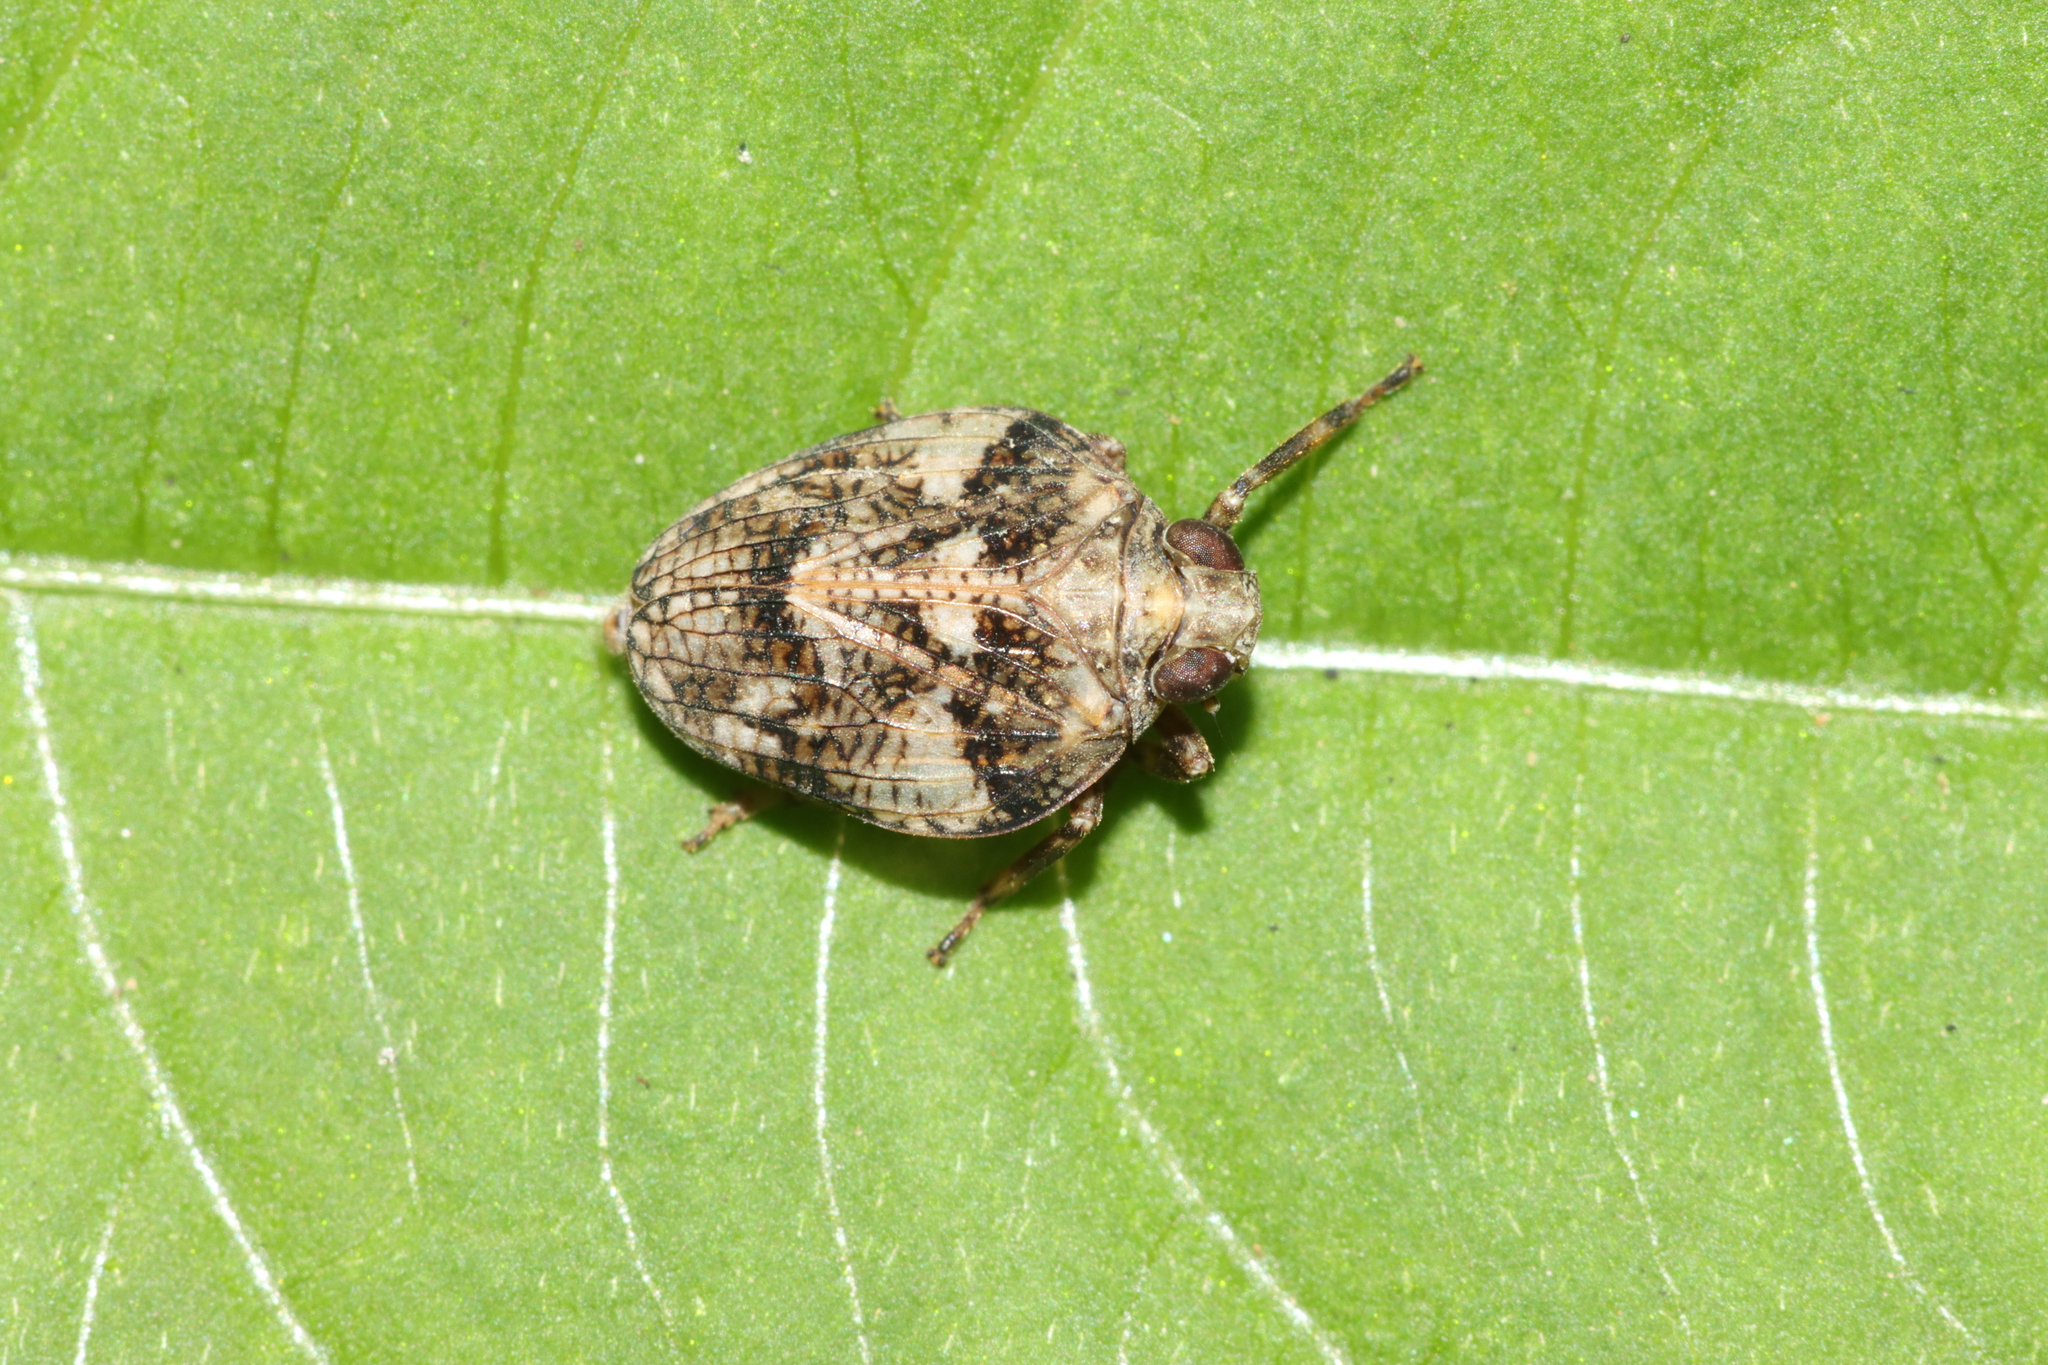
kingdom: Animalia
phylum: Arthropoda
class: Insecta
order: Hemiptera
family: Issidae
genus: Issus
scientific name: Issus muscaeformis
